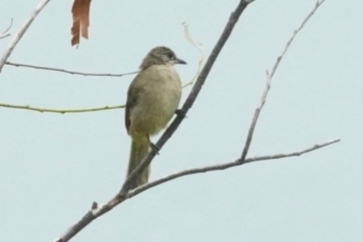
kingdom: Animalia
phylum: Chordata
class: Aves
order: Passeriformes
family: Pycnonotidae
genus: Pycnonotus
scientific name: Pycnonotus blanfordi
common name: Streak-eared bulbul
